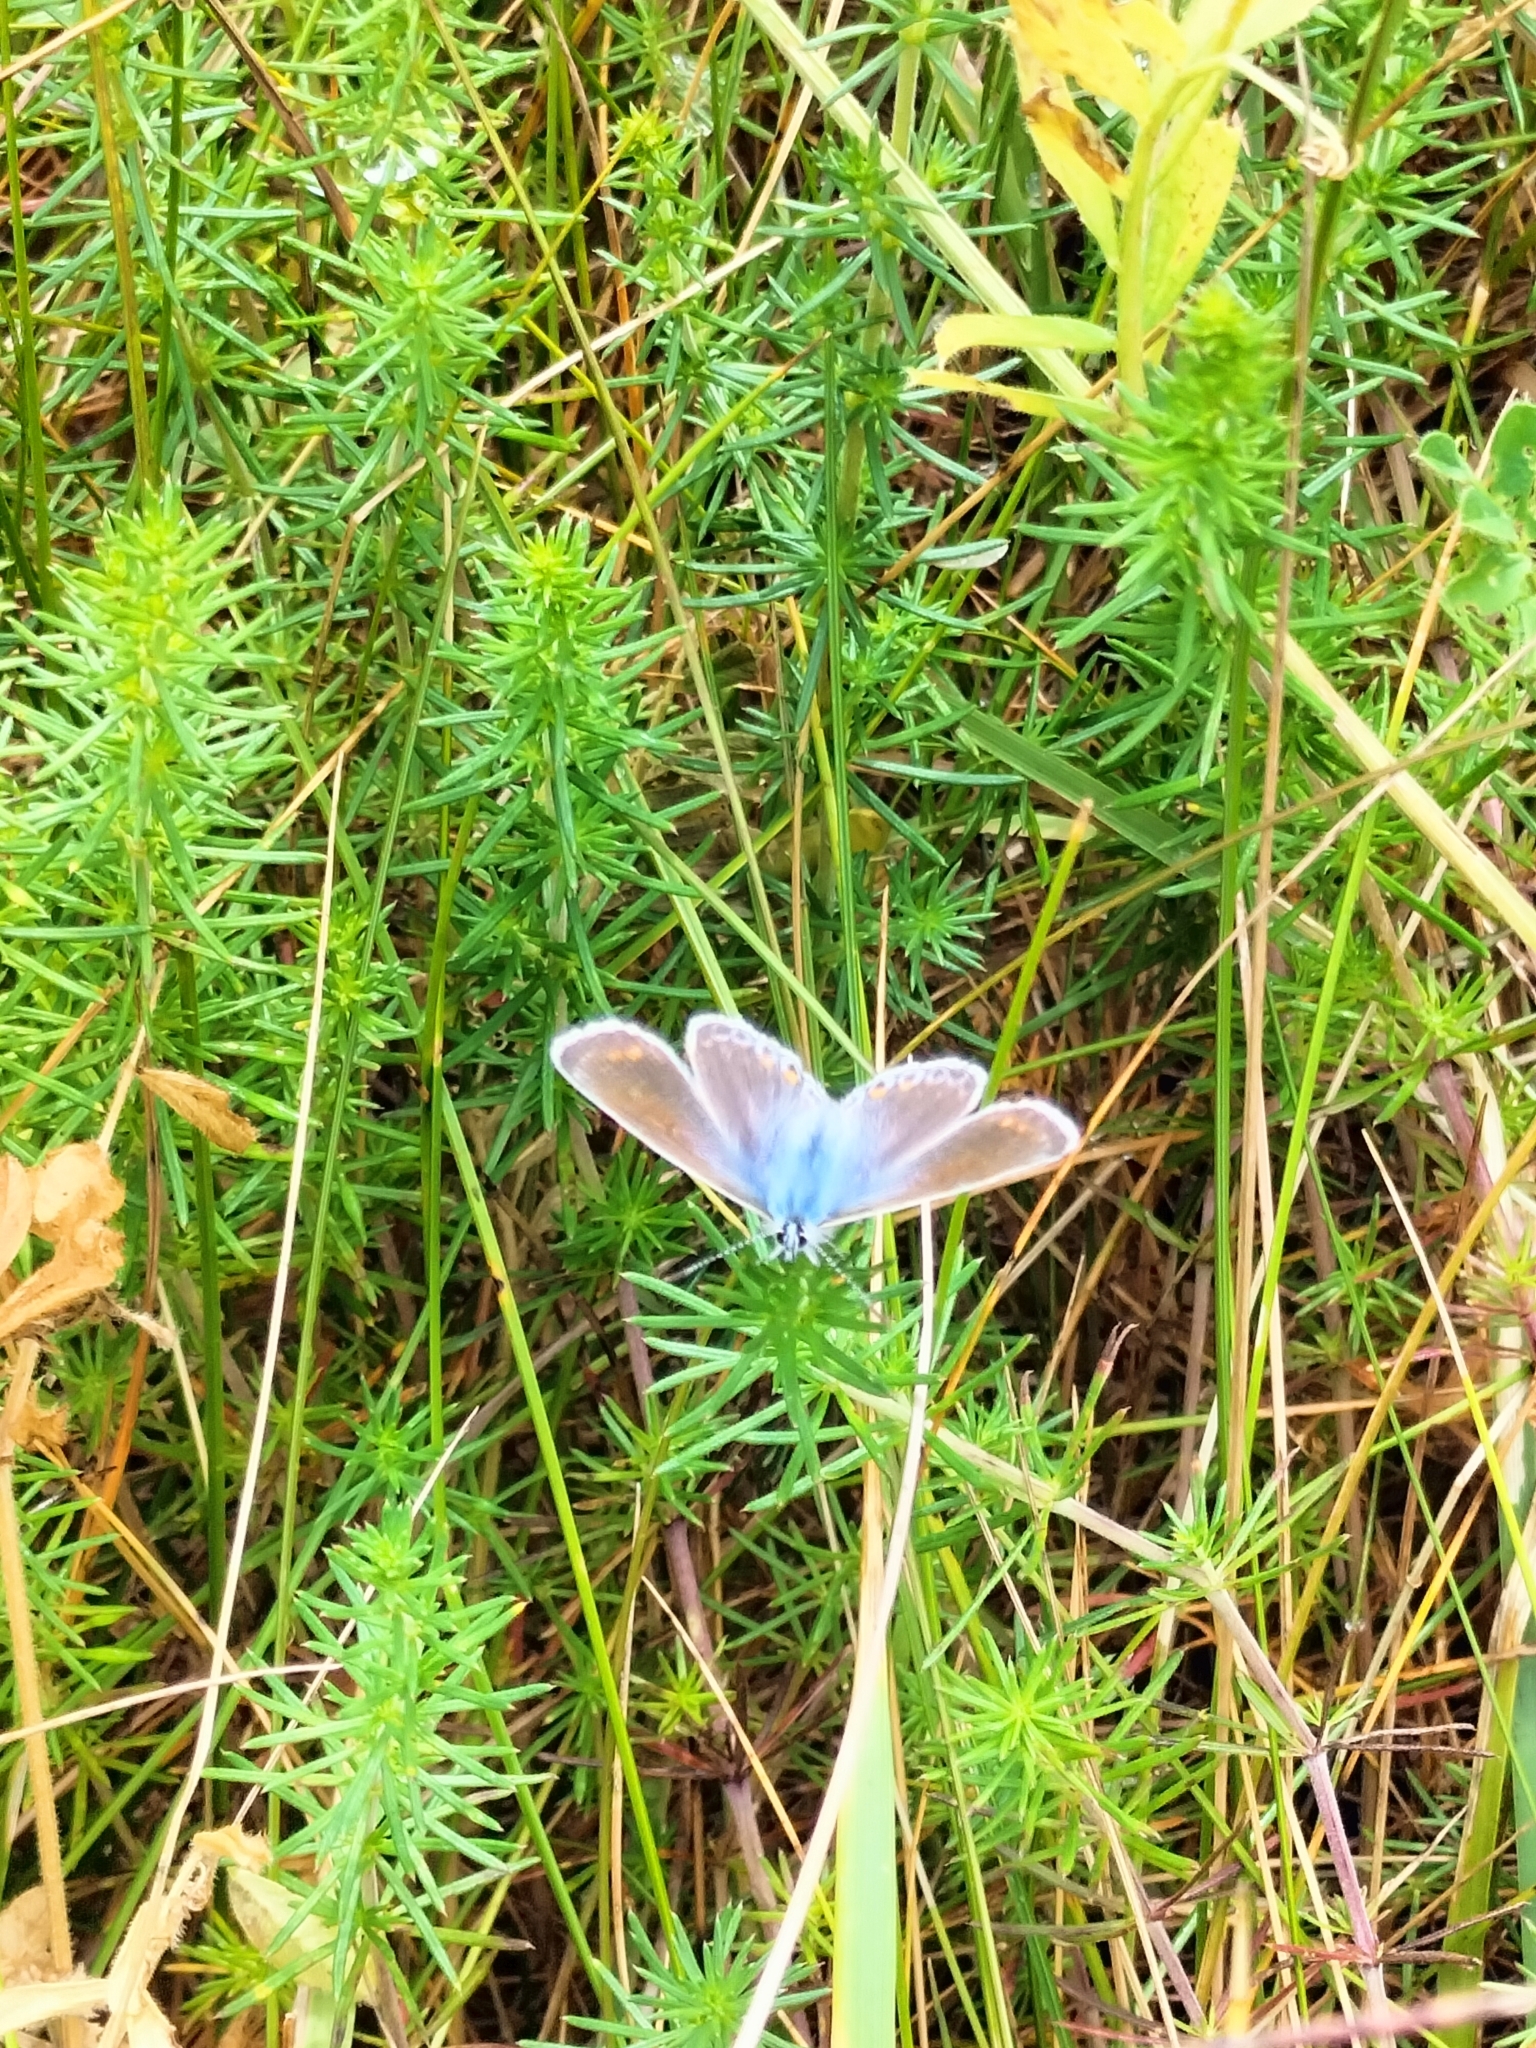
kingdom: Animalia
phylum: Arthropoda
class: Insecta
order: Lepidoptera
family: Lycaenidae
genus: Polyommatus
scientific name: Polyommatus icarus
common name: Common blue
